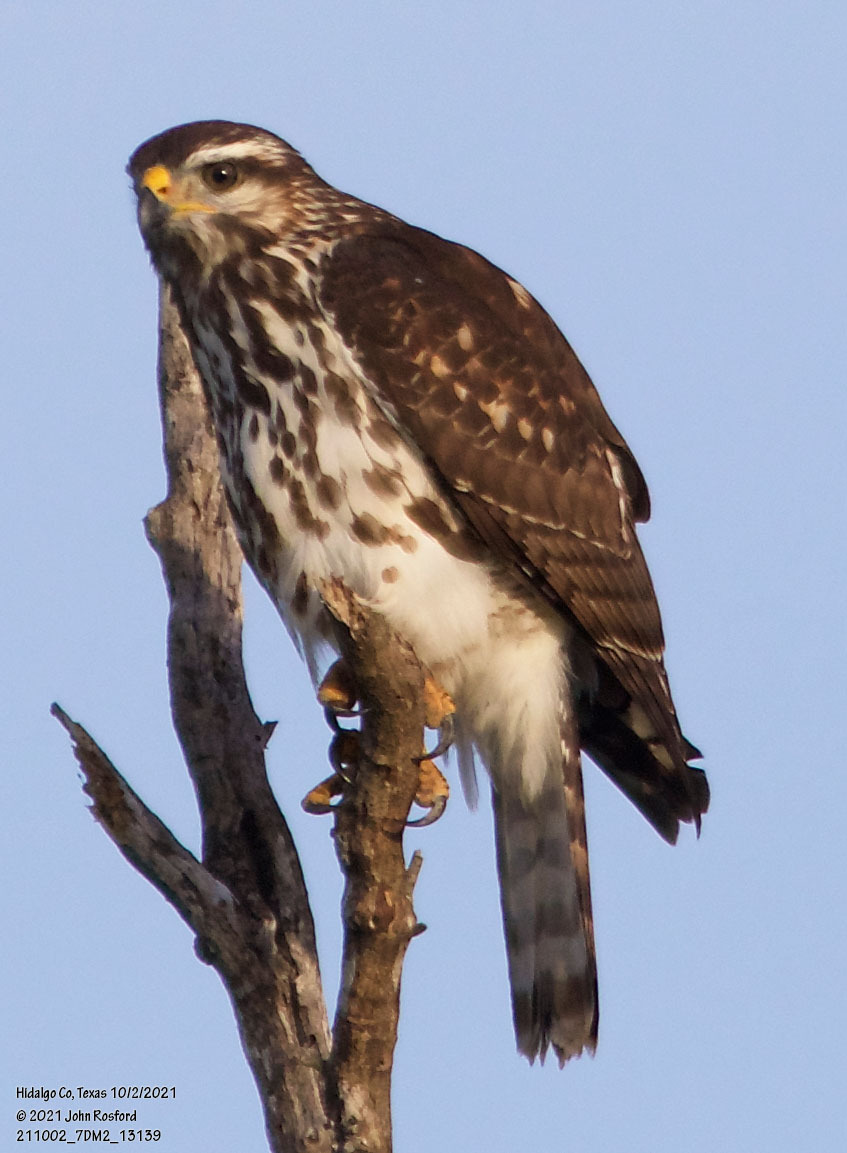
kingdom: Animalia
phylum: Chordata
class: Aves
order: Accipitriformes
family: Accipitridae
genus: Buteo
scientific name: Buteo nitidus
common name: Grey-lined hawk
